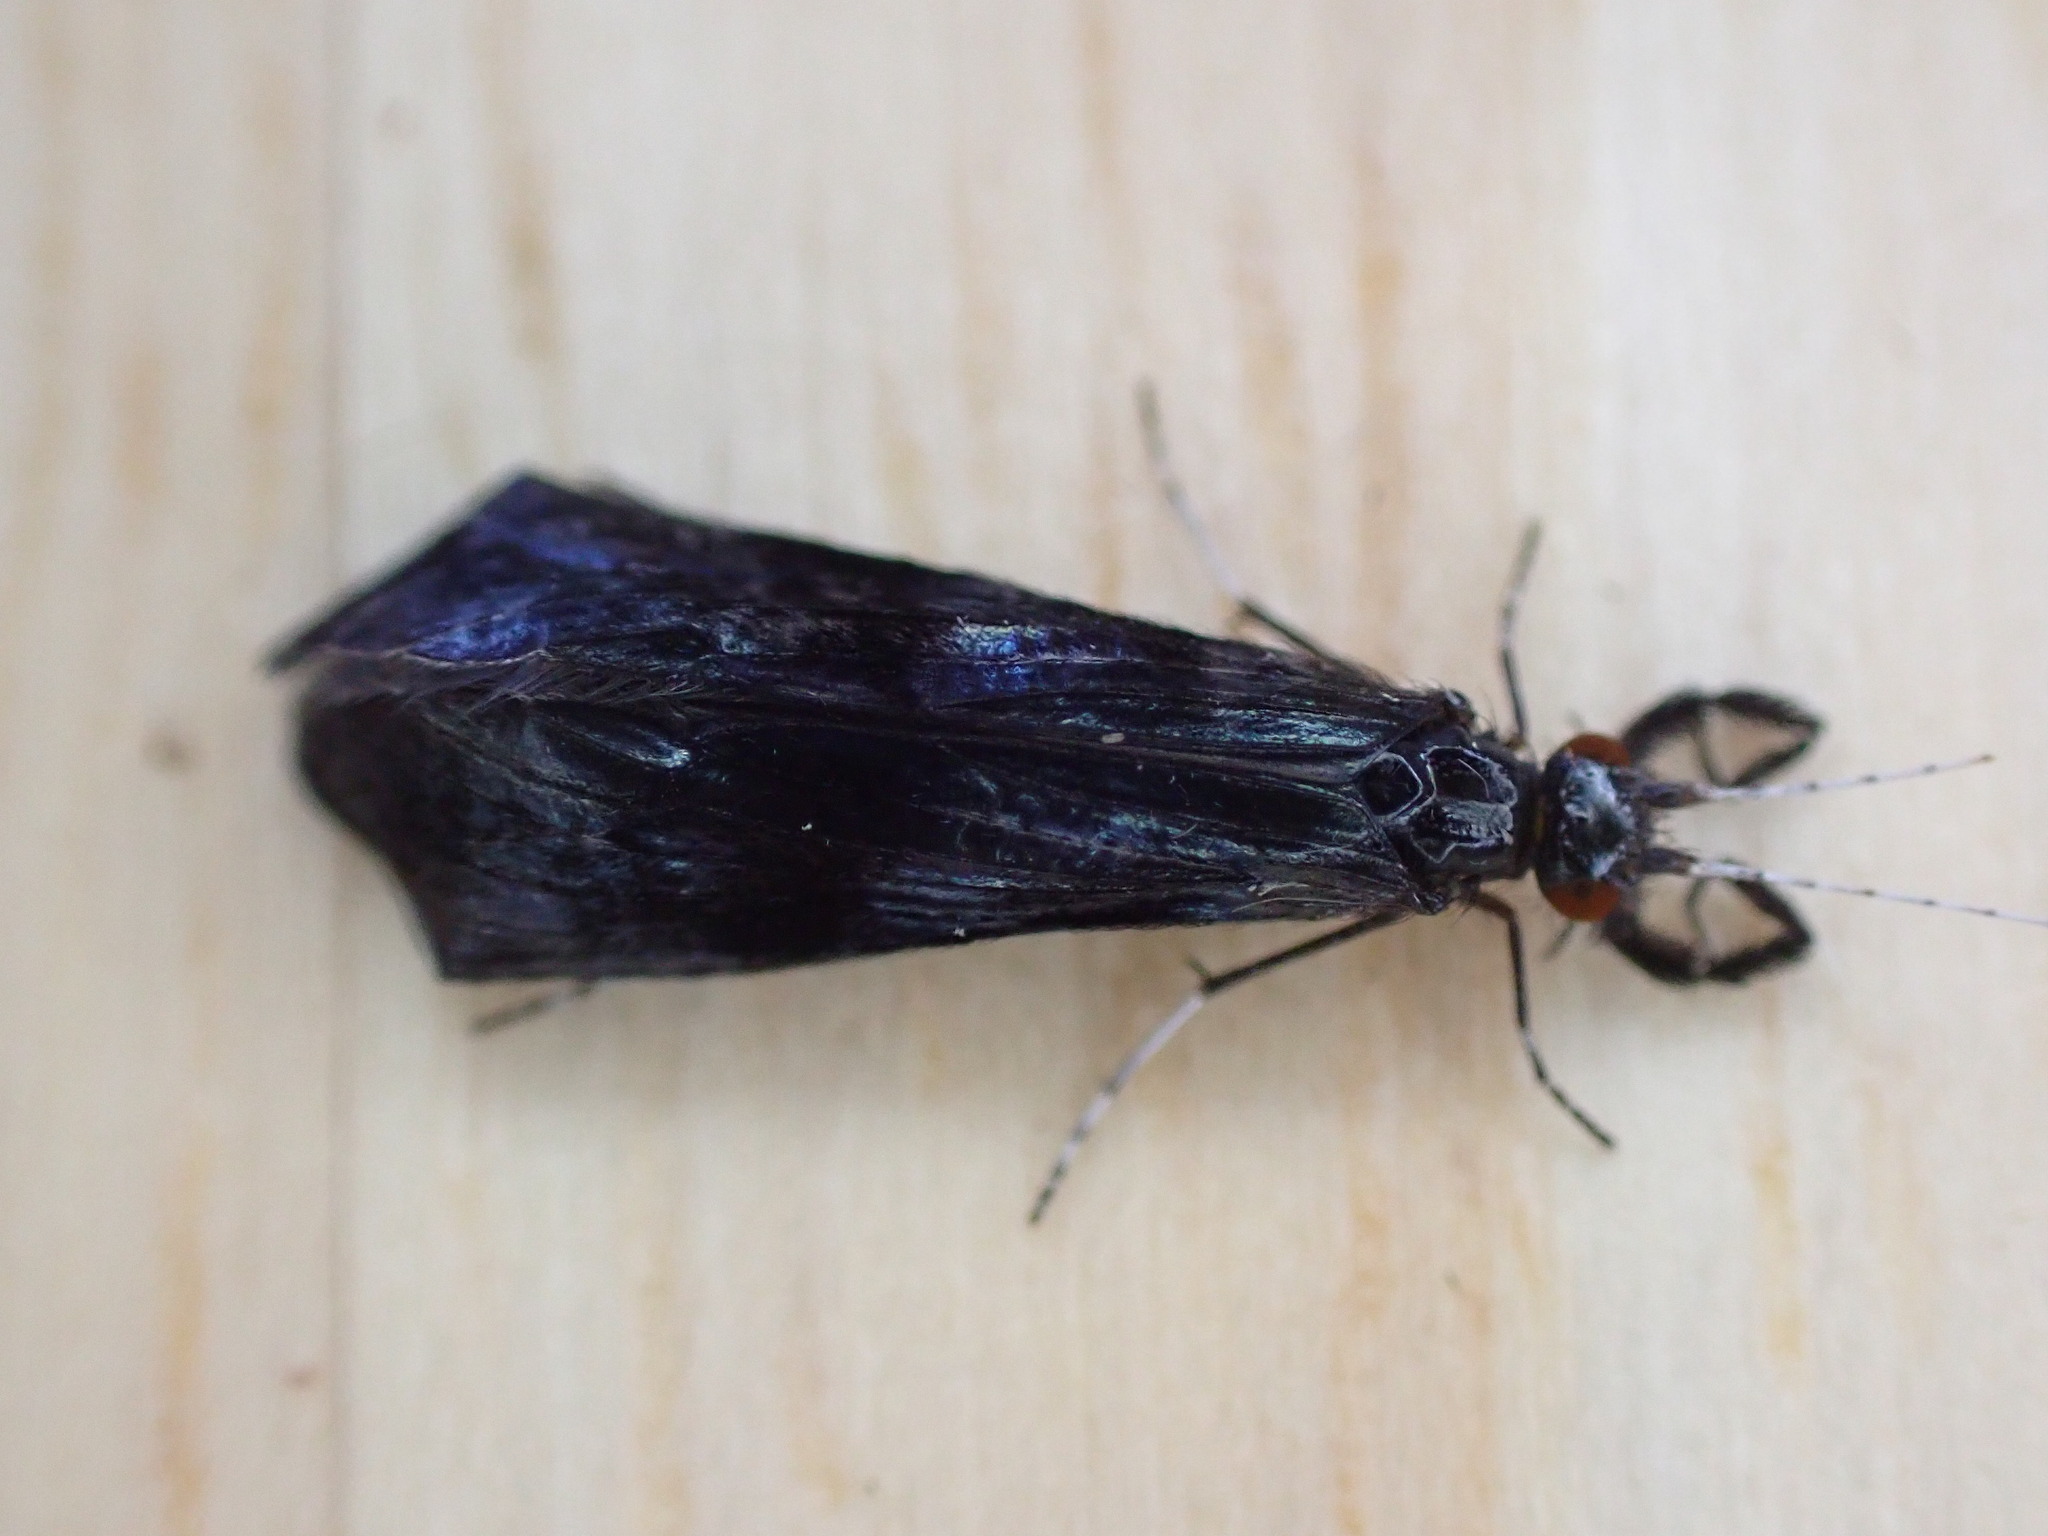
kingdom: Animalia
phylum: Arthropoda
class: Insecta
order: Trichoptera
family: Leptoceridae
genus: Mystacides
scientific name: Mystacides azureus
